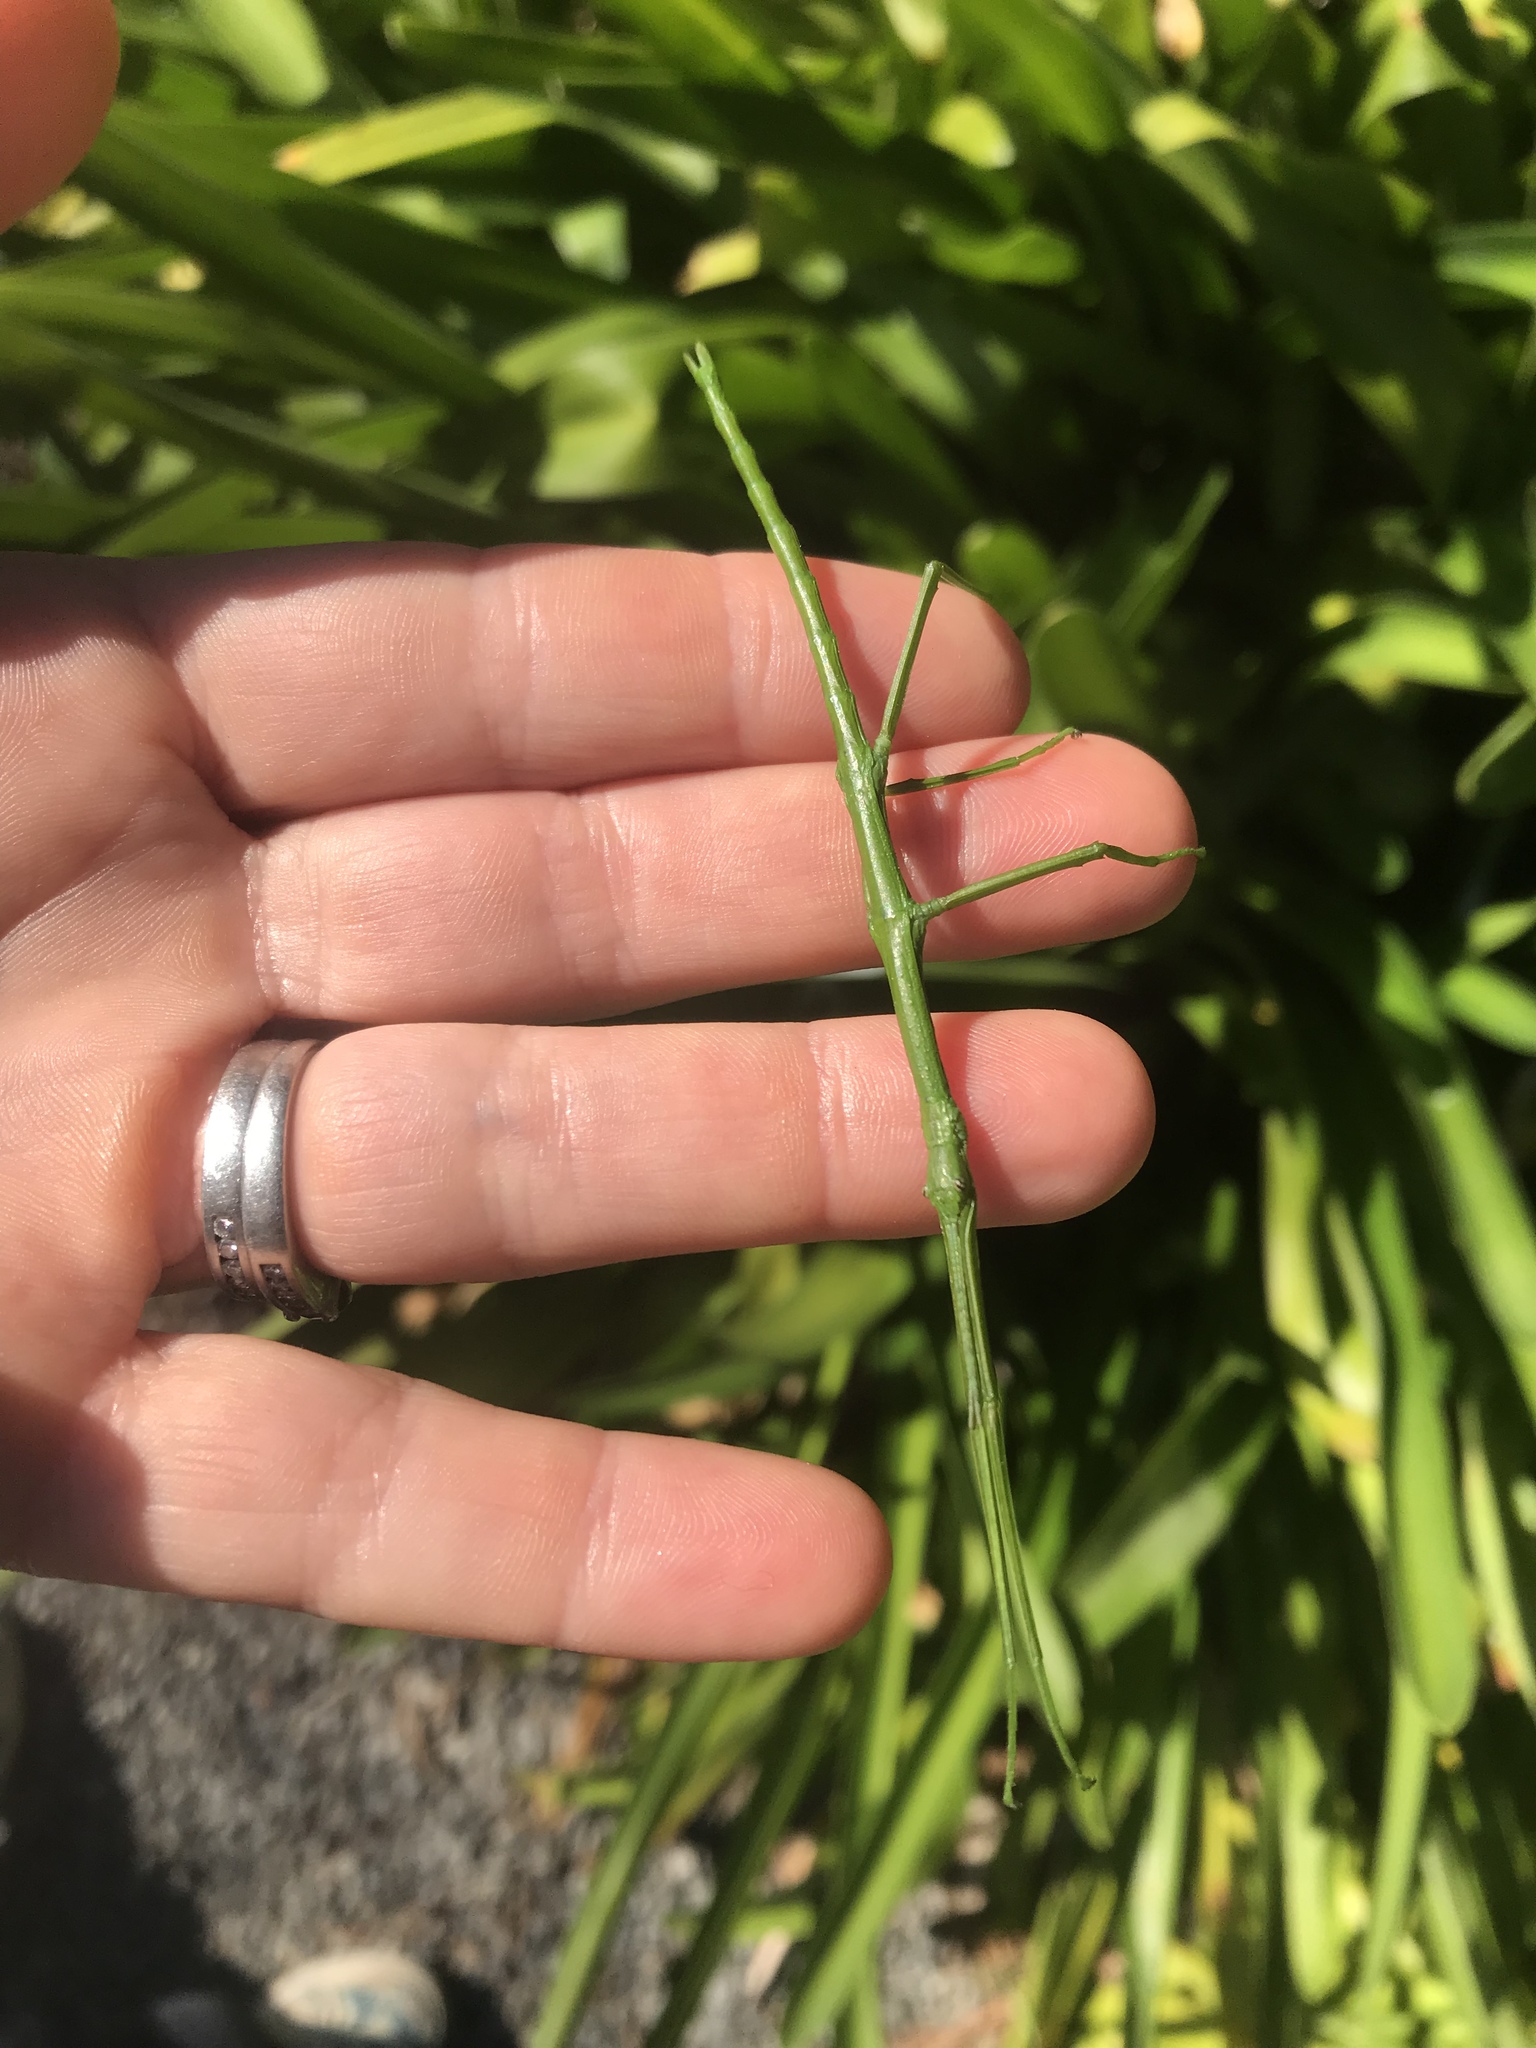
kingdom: Animalia
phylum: Arthropoda
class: Insecta
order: Phasmida
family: Phasmatidae
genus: Clitarchus
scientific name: Clitarchus hookeri
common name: Smooth stick insect
